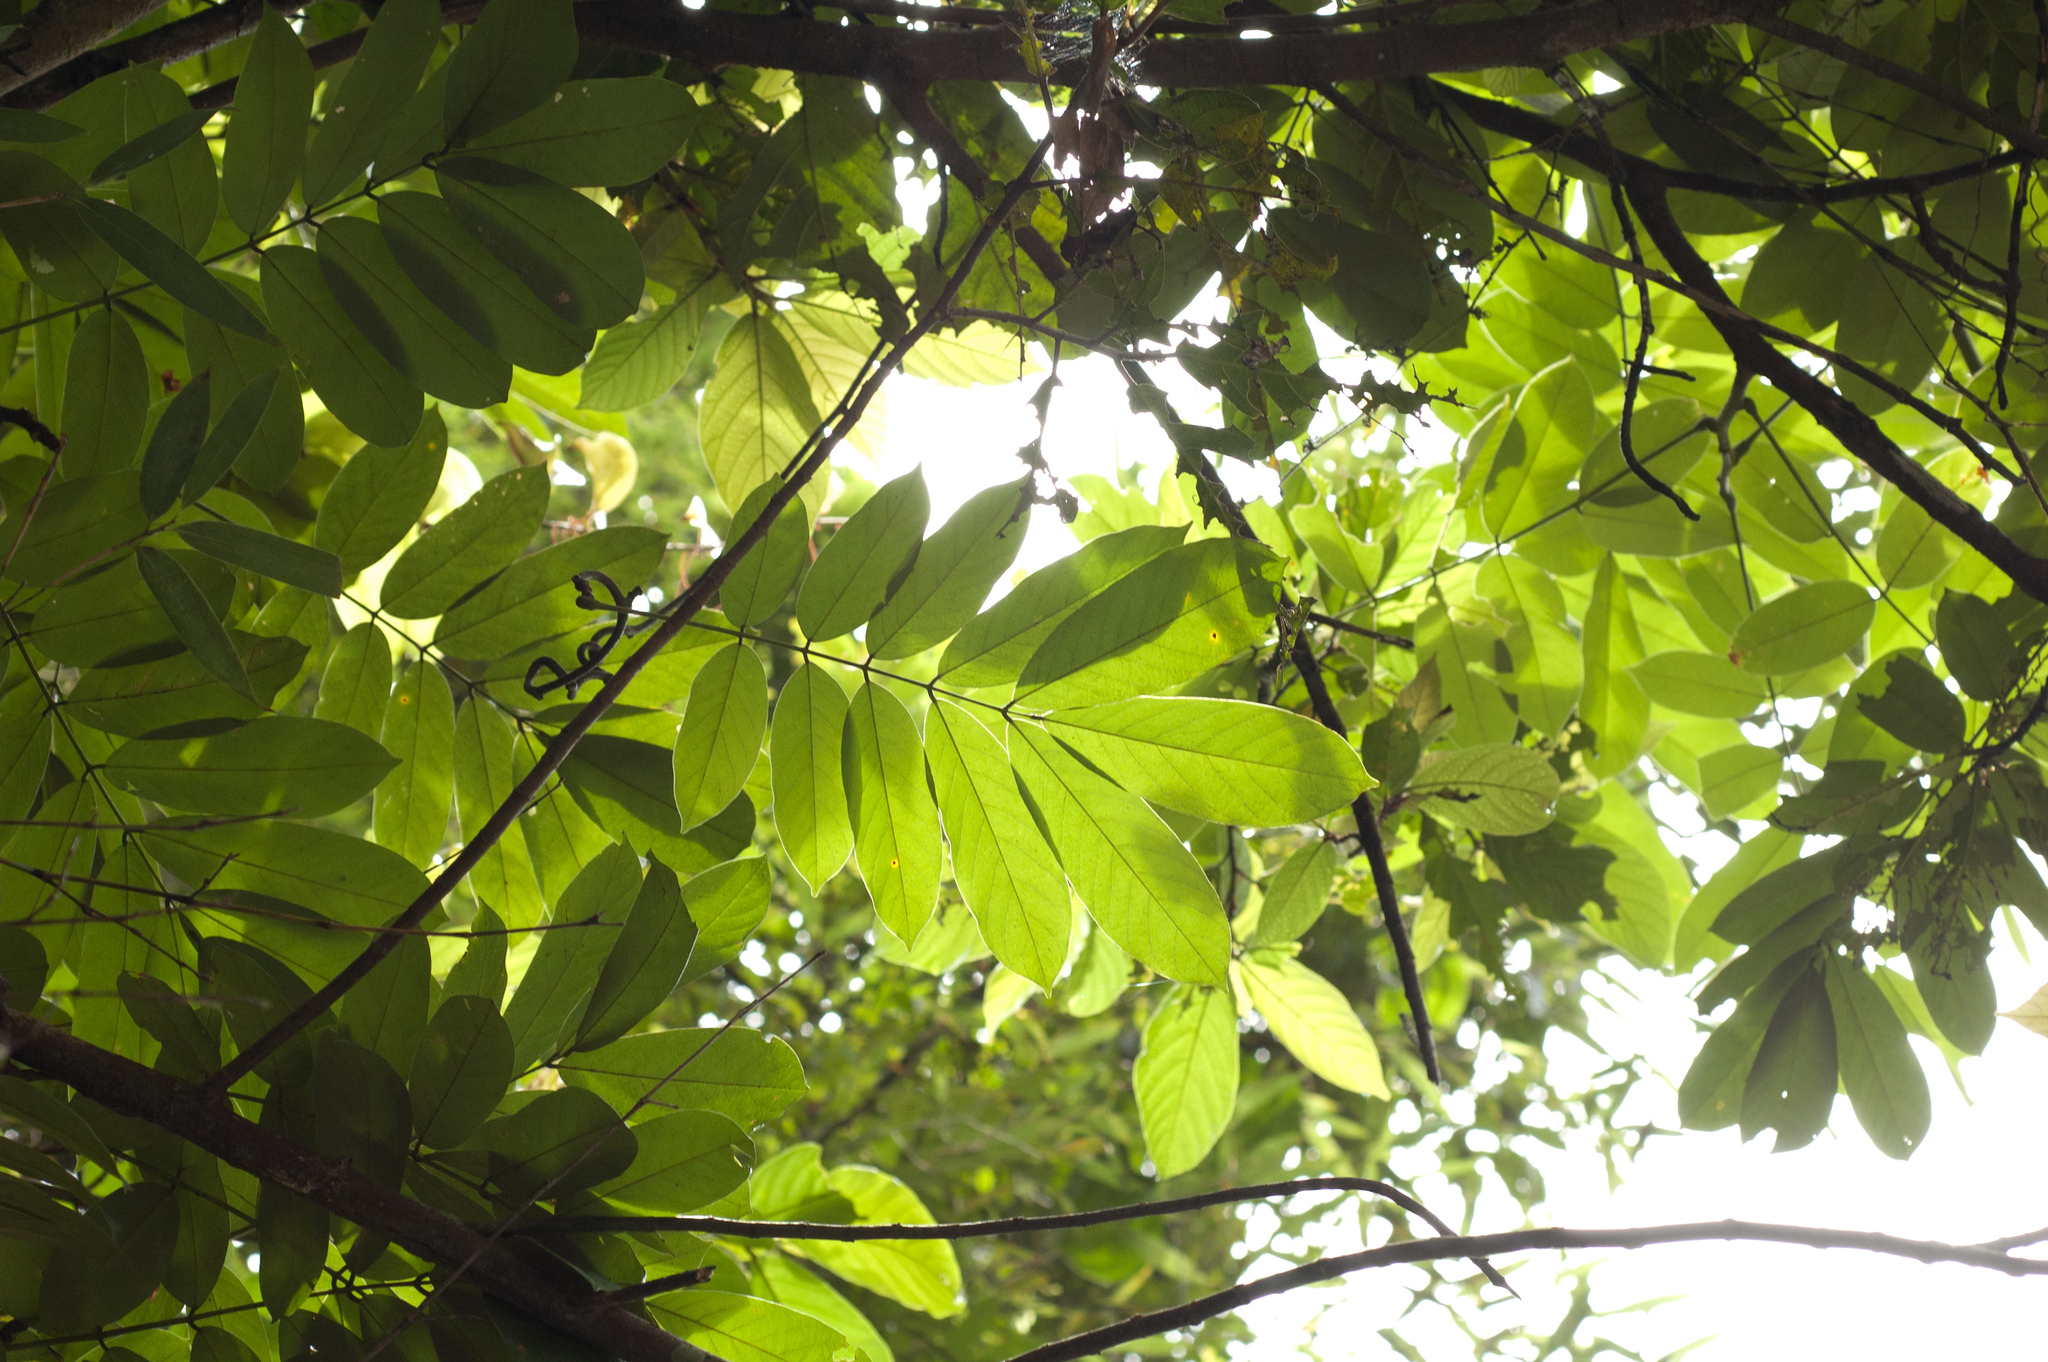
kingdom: Plantae
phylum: Tracheophyta
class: Magnoliopsida
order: Fabales
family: Fabaceae
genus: Millettia
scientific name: Millettia pachycarpa
